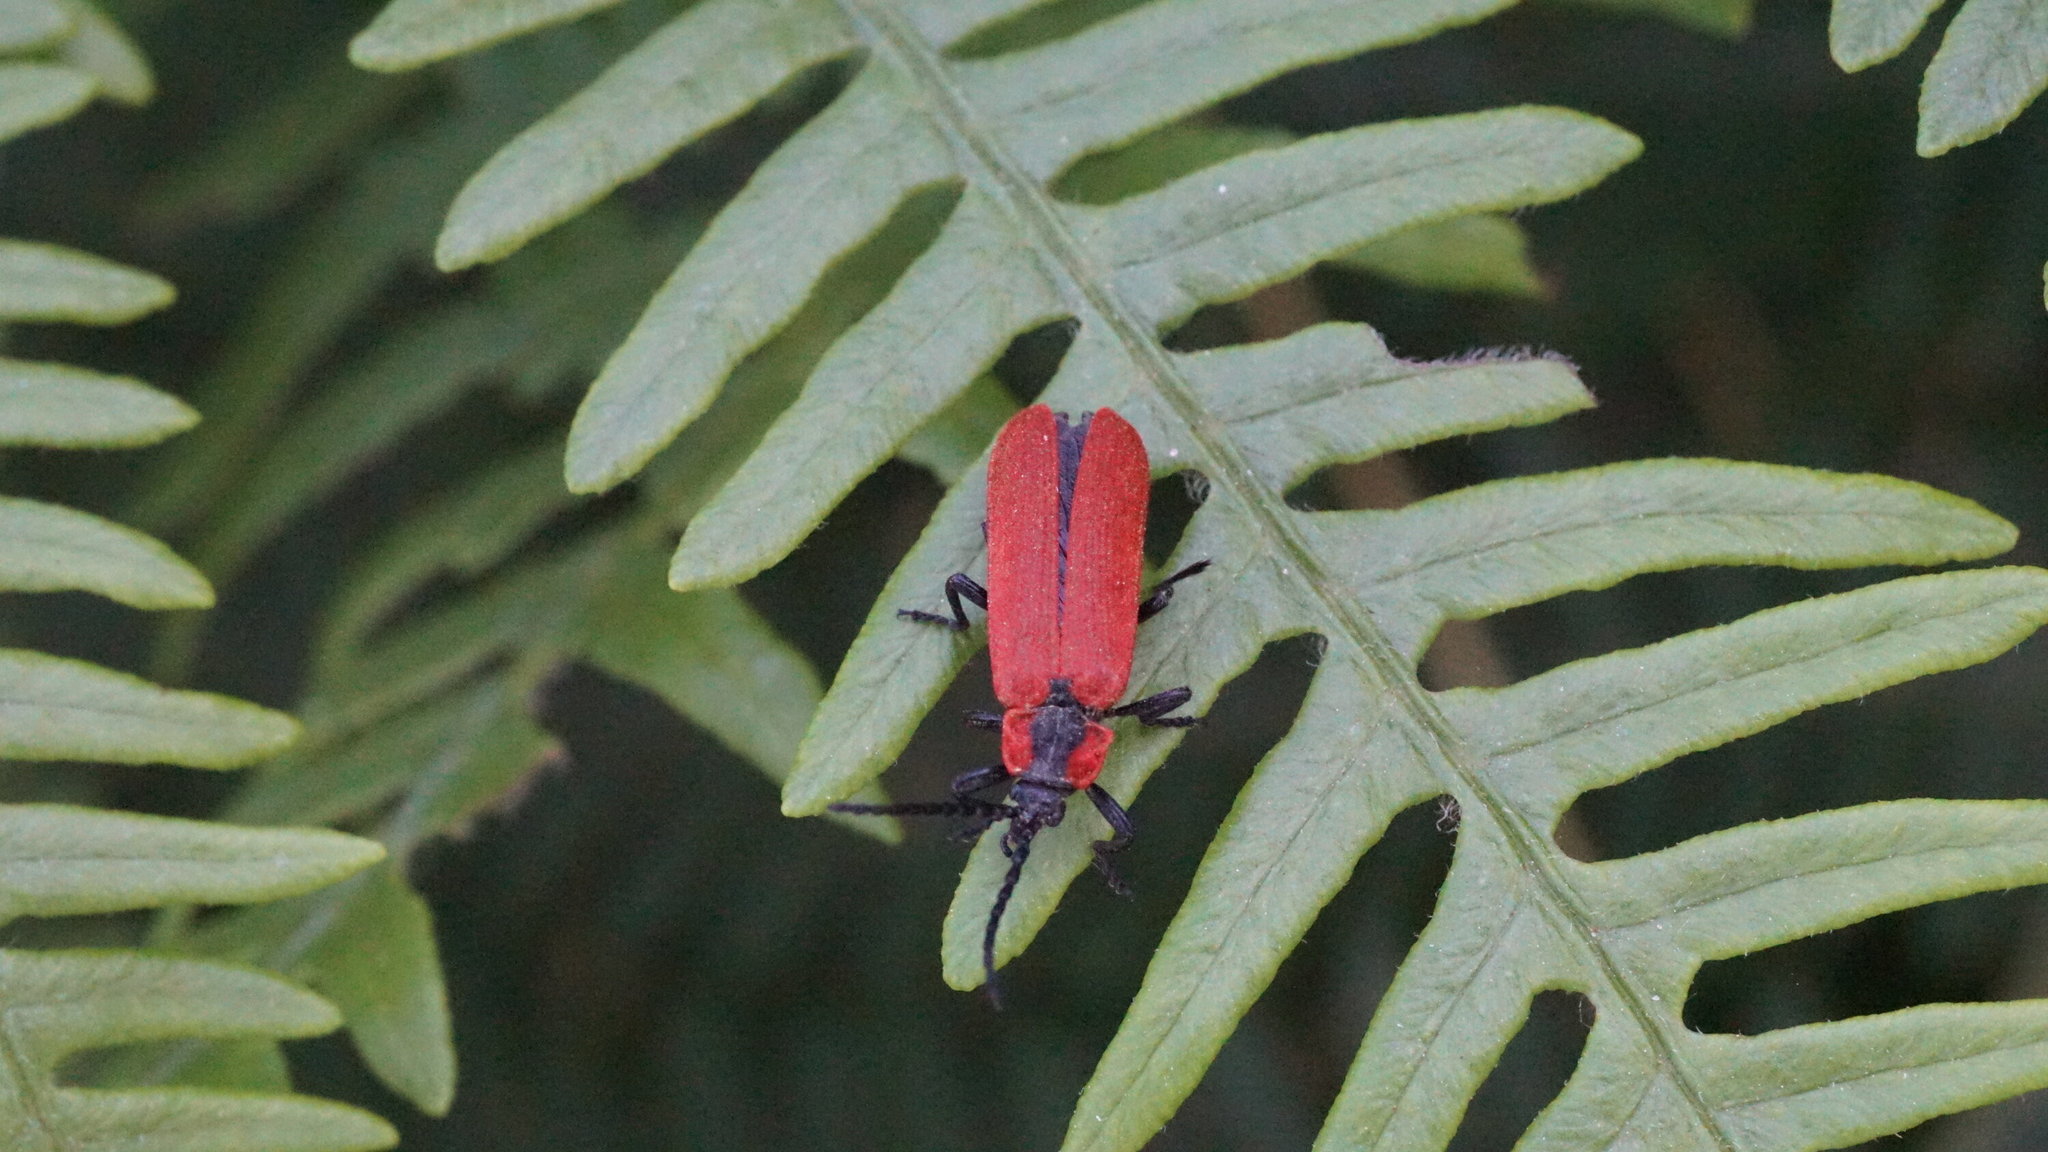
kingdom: Animalia
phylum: Arthropoda
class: Insecta
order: Coleoptera
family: Lycidae
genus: Lygistopterus
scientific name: Lygistopterus sanguineus
